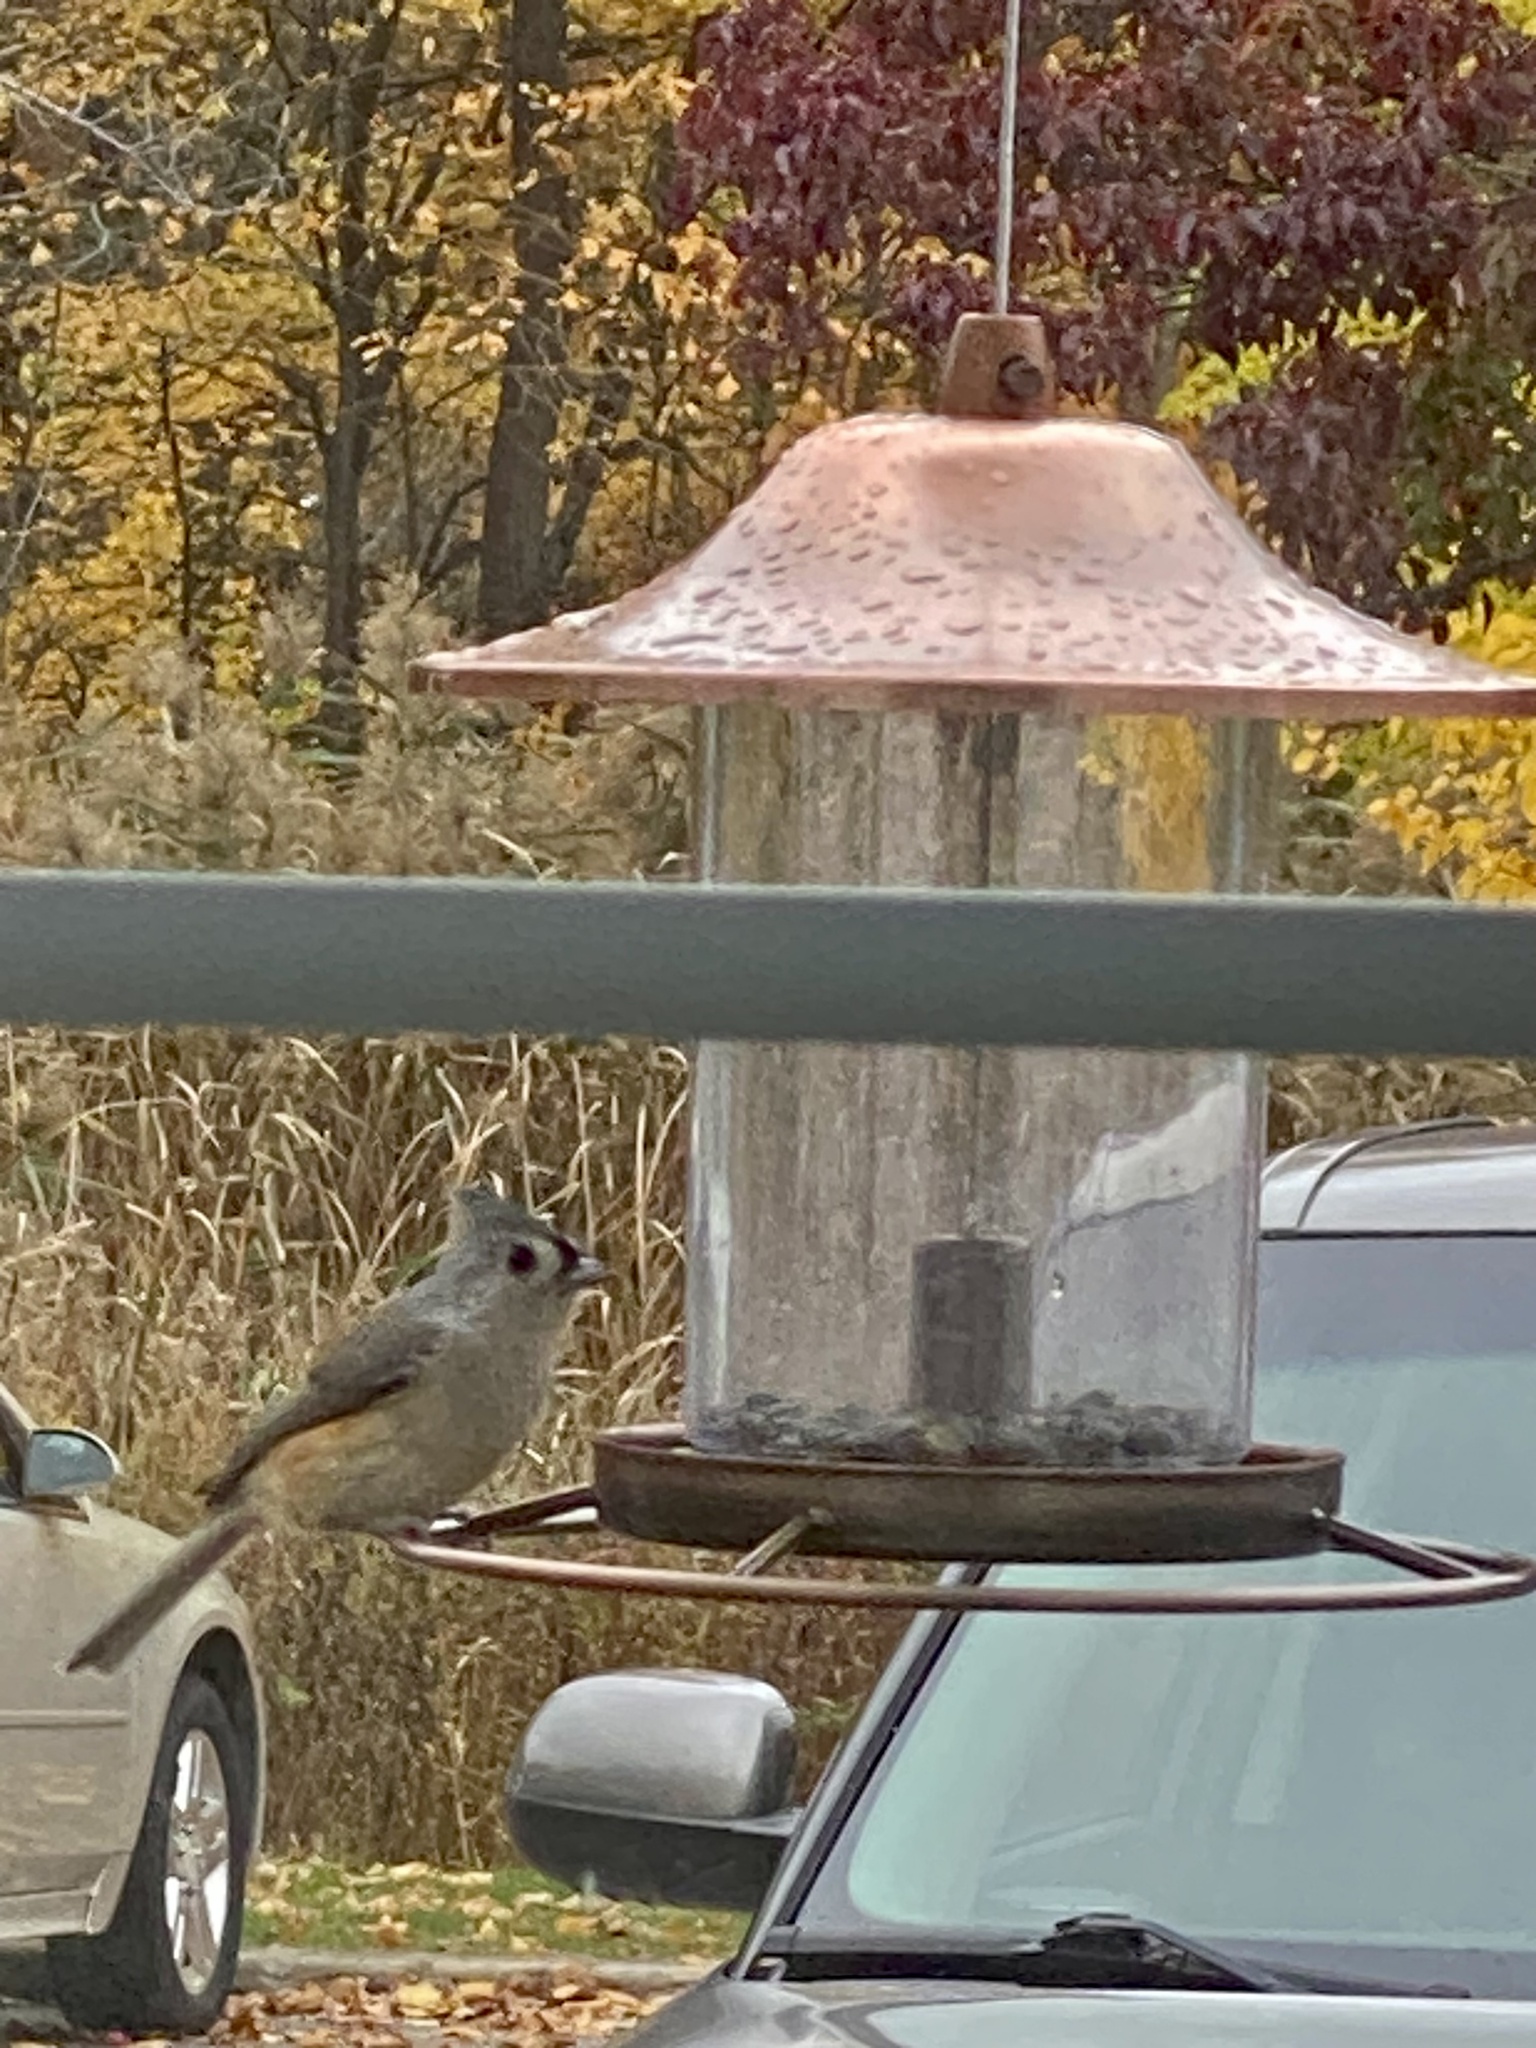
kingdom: Animalia
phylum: Chordata
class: Aves
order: Passeriformes
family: Paridae
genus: Baeolophus
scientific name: Baeolophus bicolor
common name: Tufted titmouse
